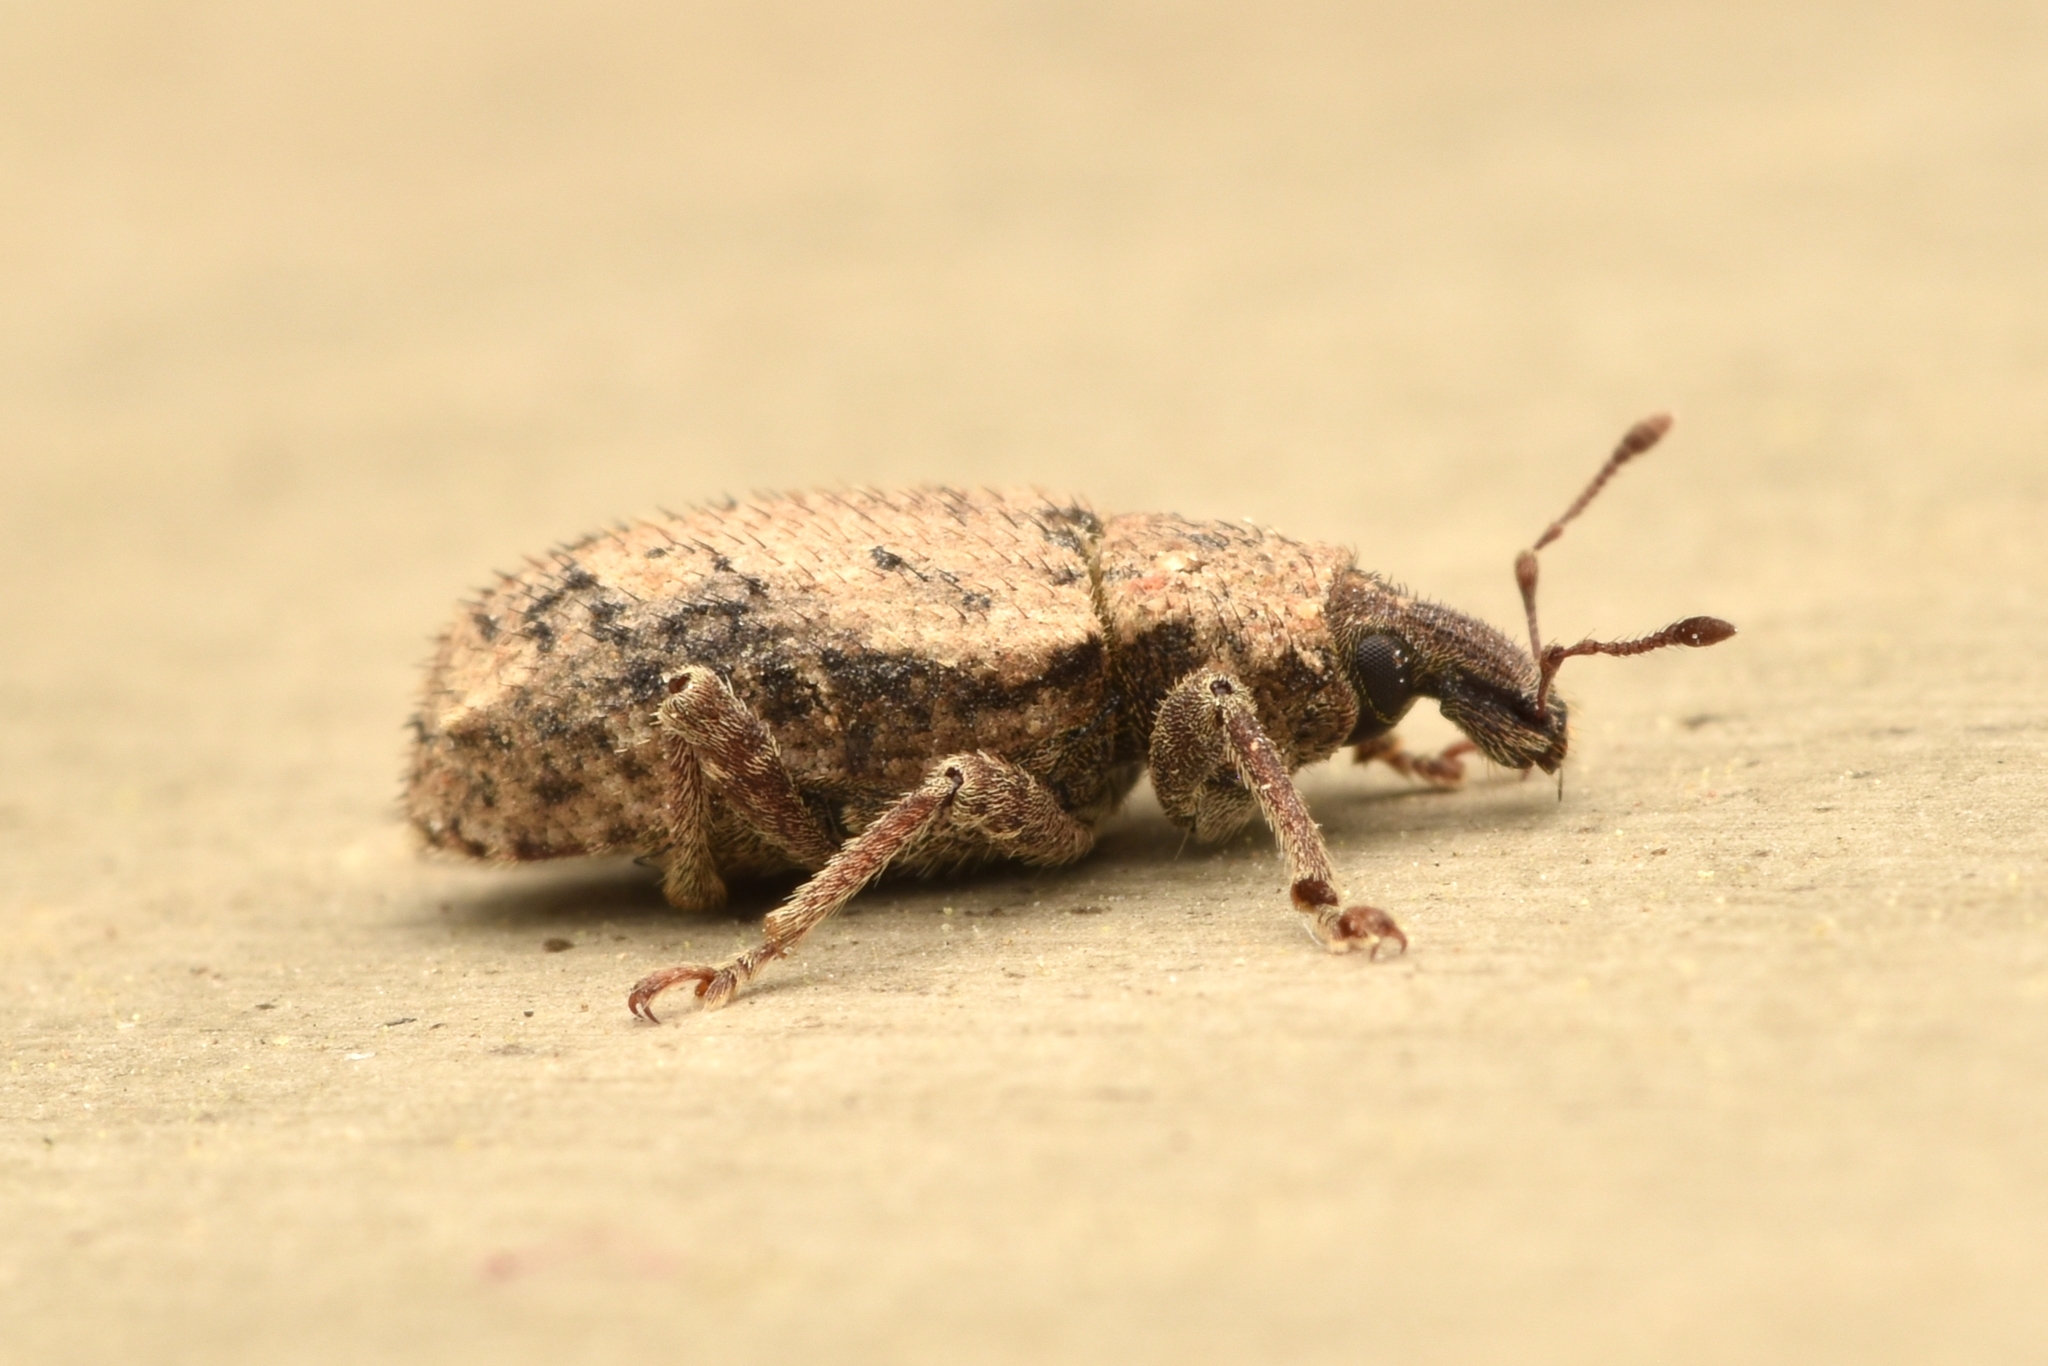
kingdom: Animalia
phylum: Arthropoda
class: Insecta
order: Coleoptera
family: Curculionidae
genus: Listroderes
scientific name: Listroderes costirostris
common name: Weevil
